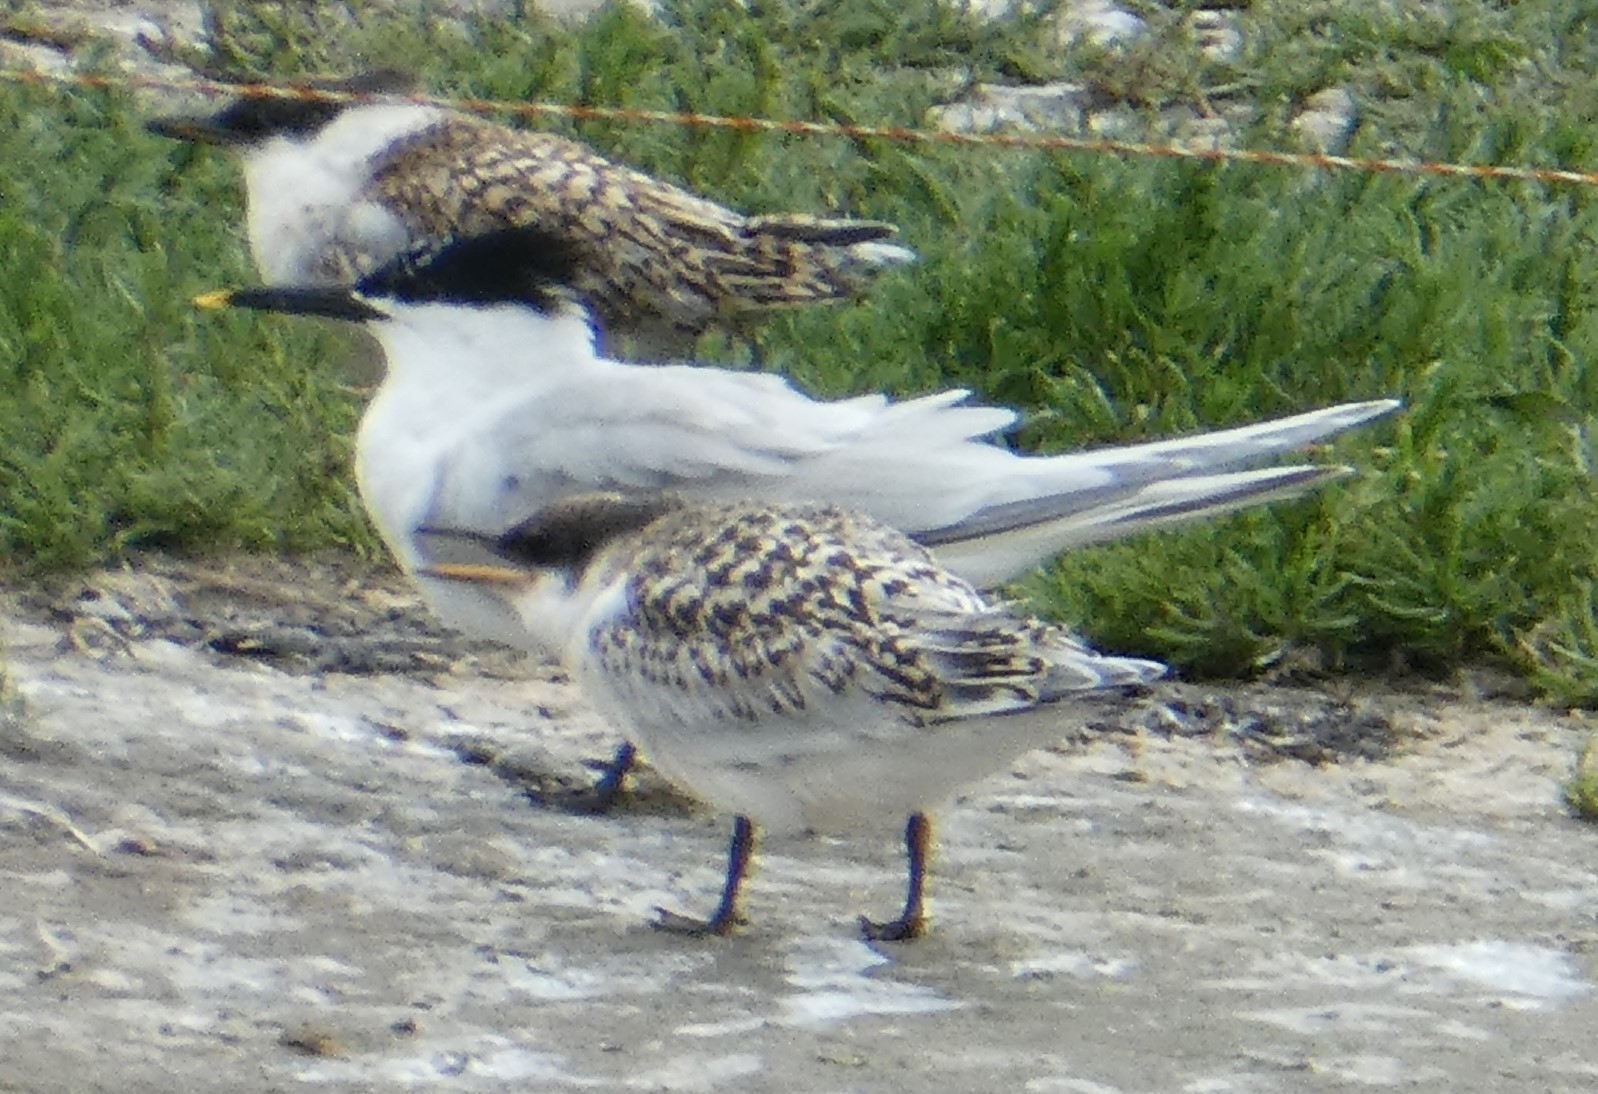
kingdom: Animalia
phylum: Chordata
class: Aves
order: Charadriiformes
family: Laridae
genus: Thalasseus
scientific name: Thalasseus sandvicensis
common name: Sandwich tern
